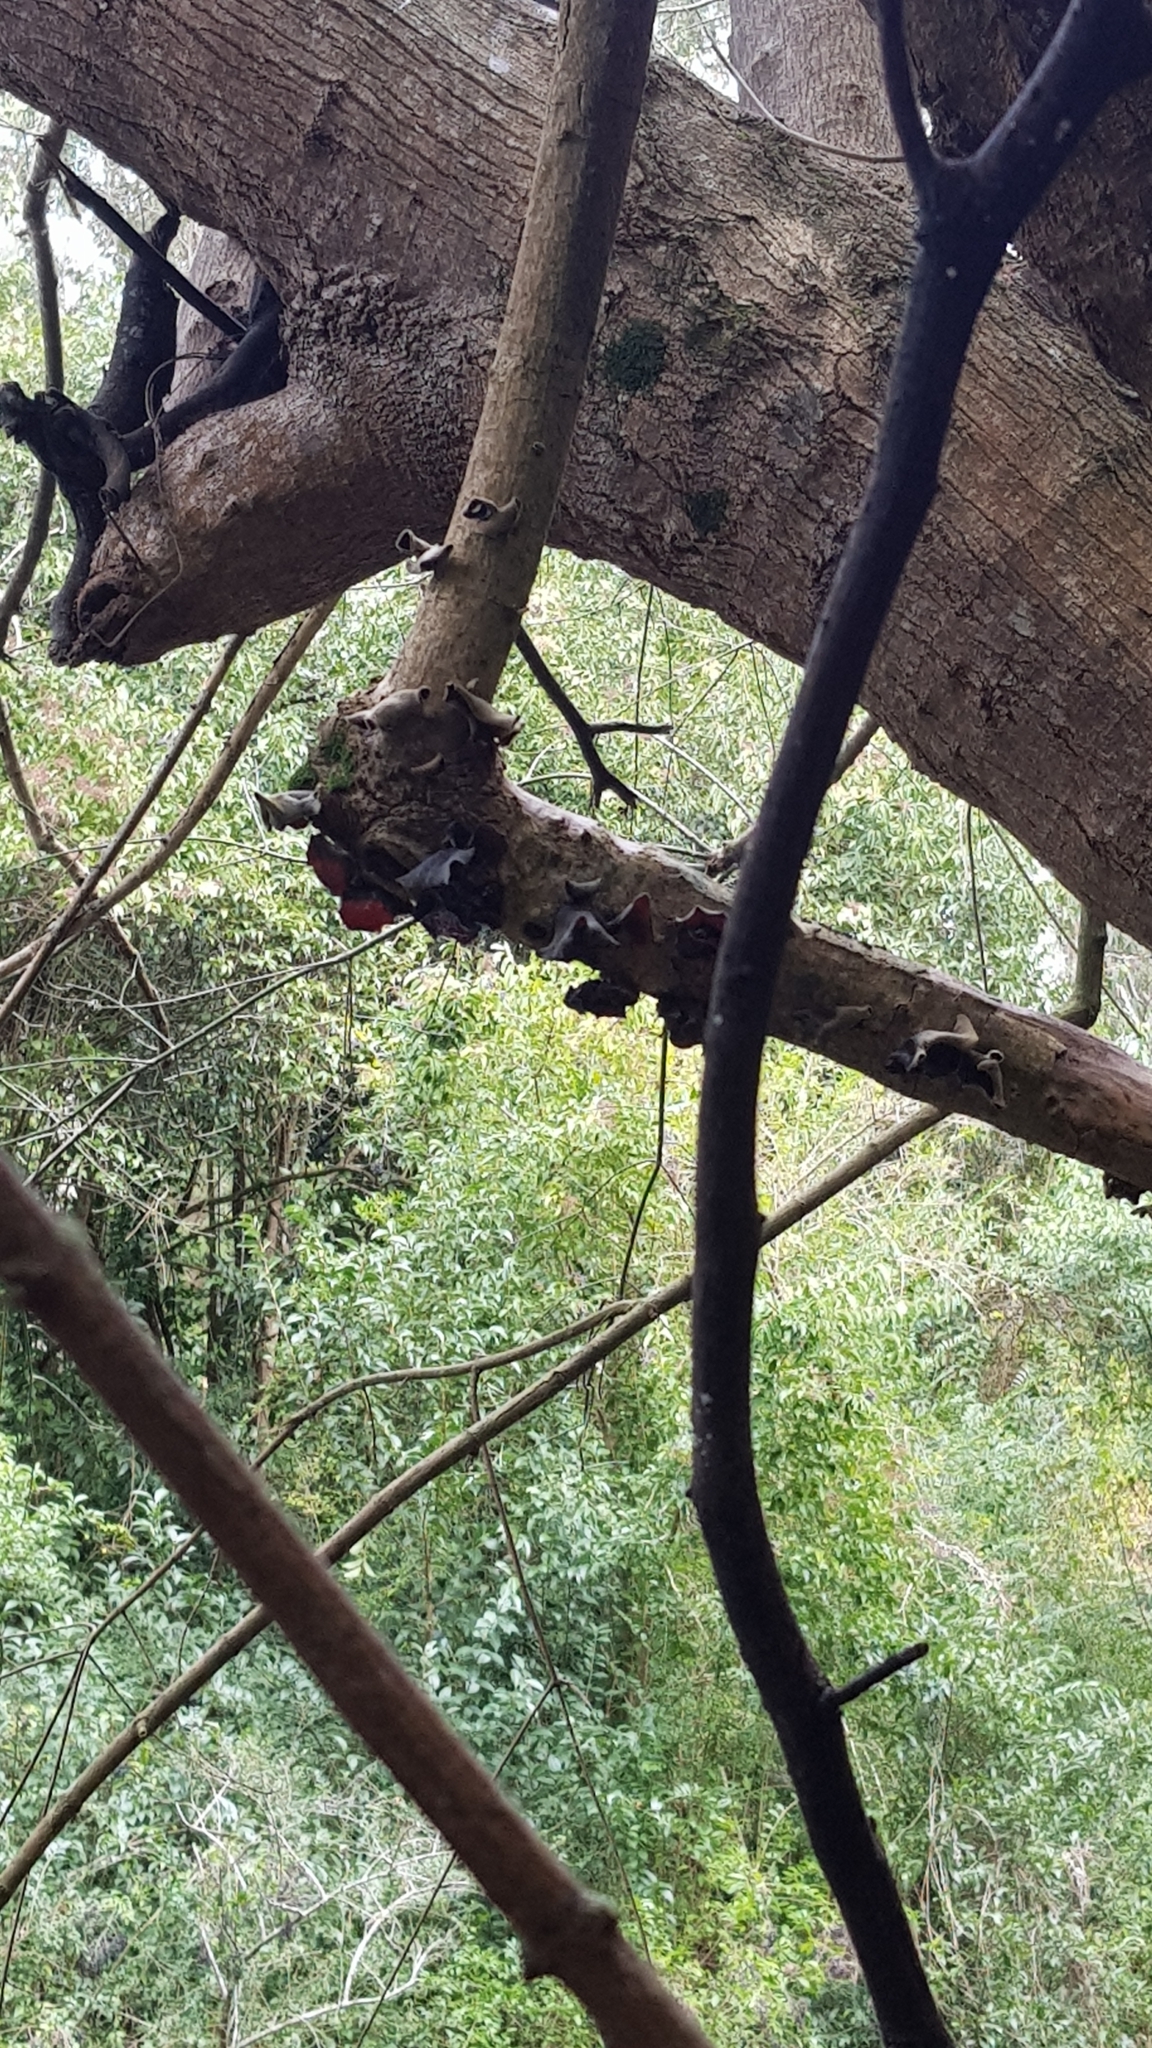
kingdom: Fungi
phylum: Basidiomycota
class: Agaricomycetes
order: Auriculariales
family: Auriculariaceae
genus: Auricularia
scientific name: Auricularia cornea
